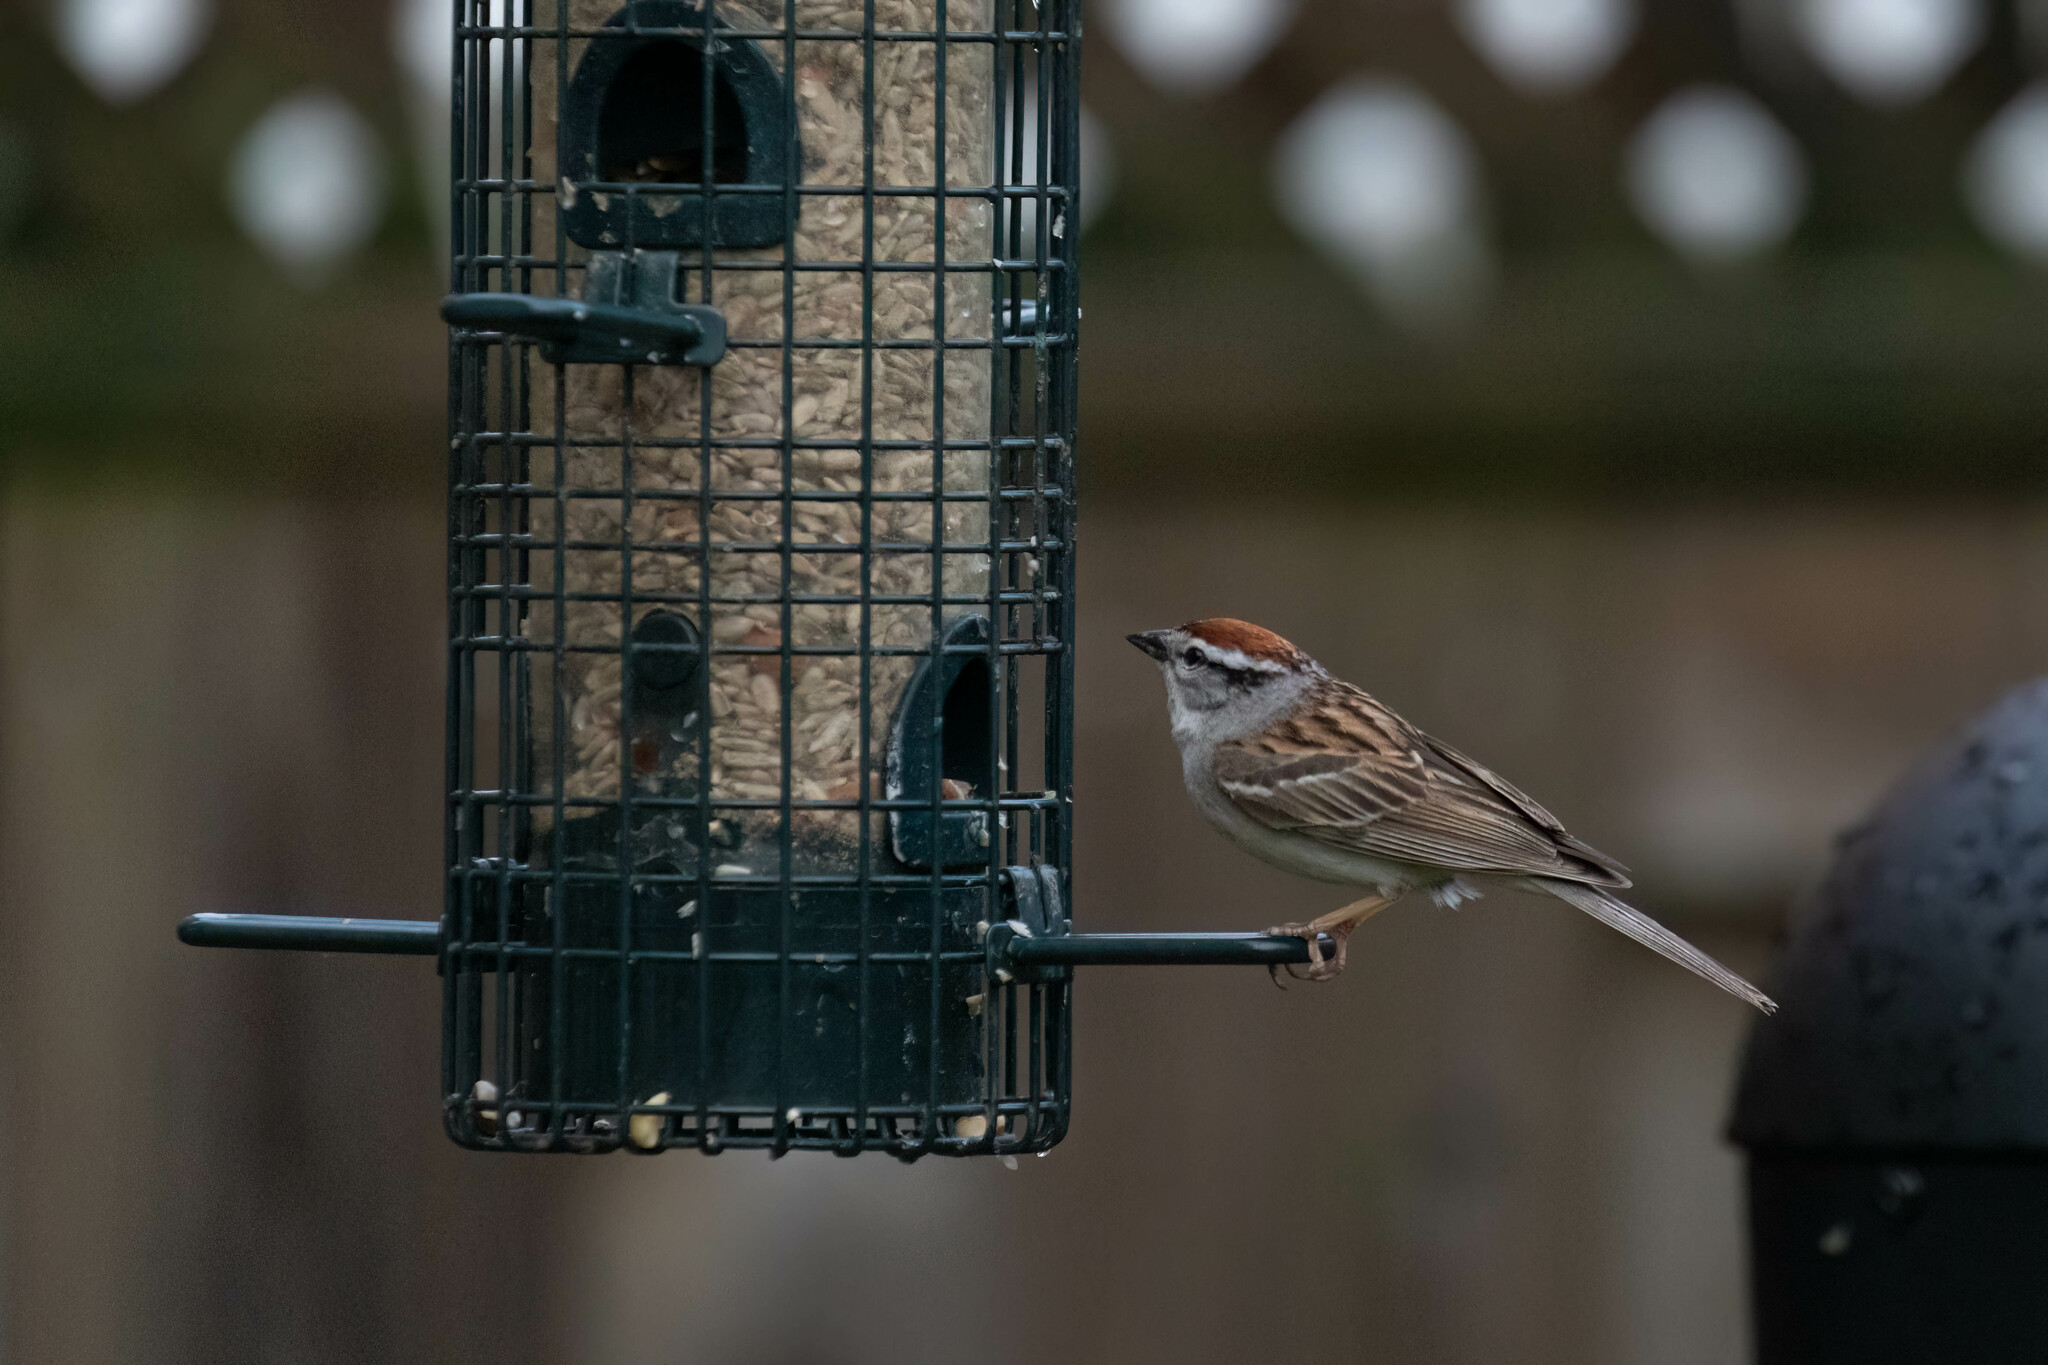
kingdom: Animalia
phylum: Chordata
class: Aves
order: Passeriformes
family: Passerellidae
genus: Spizella
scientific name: Spizella passerina
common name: Chipping sparrow
